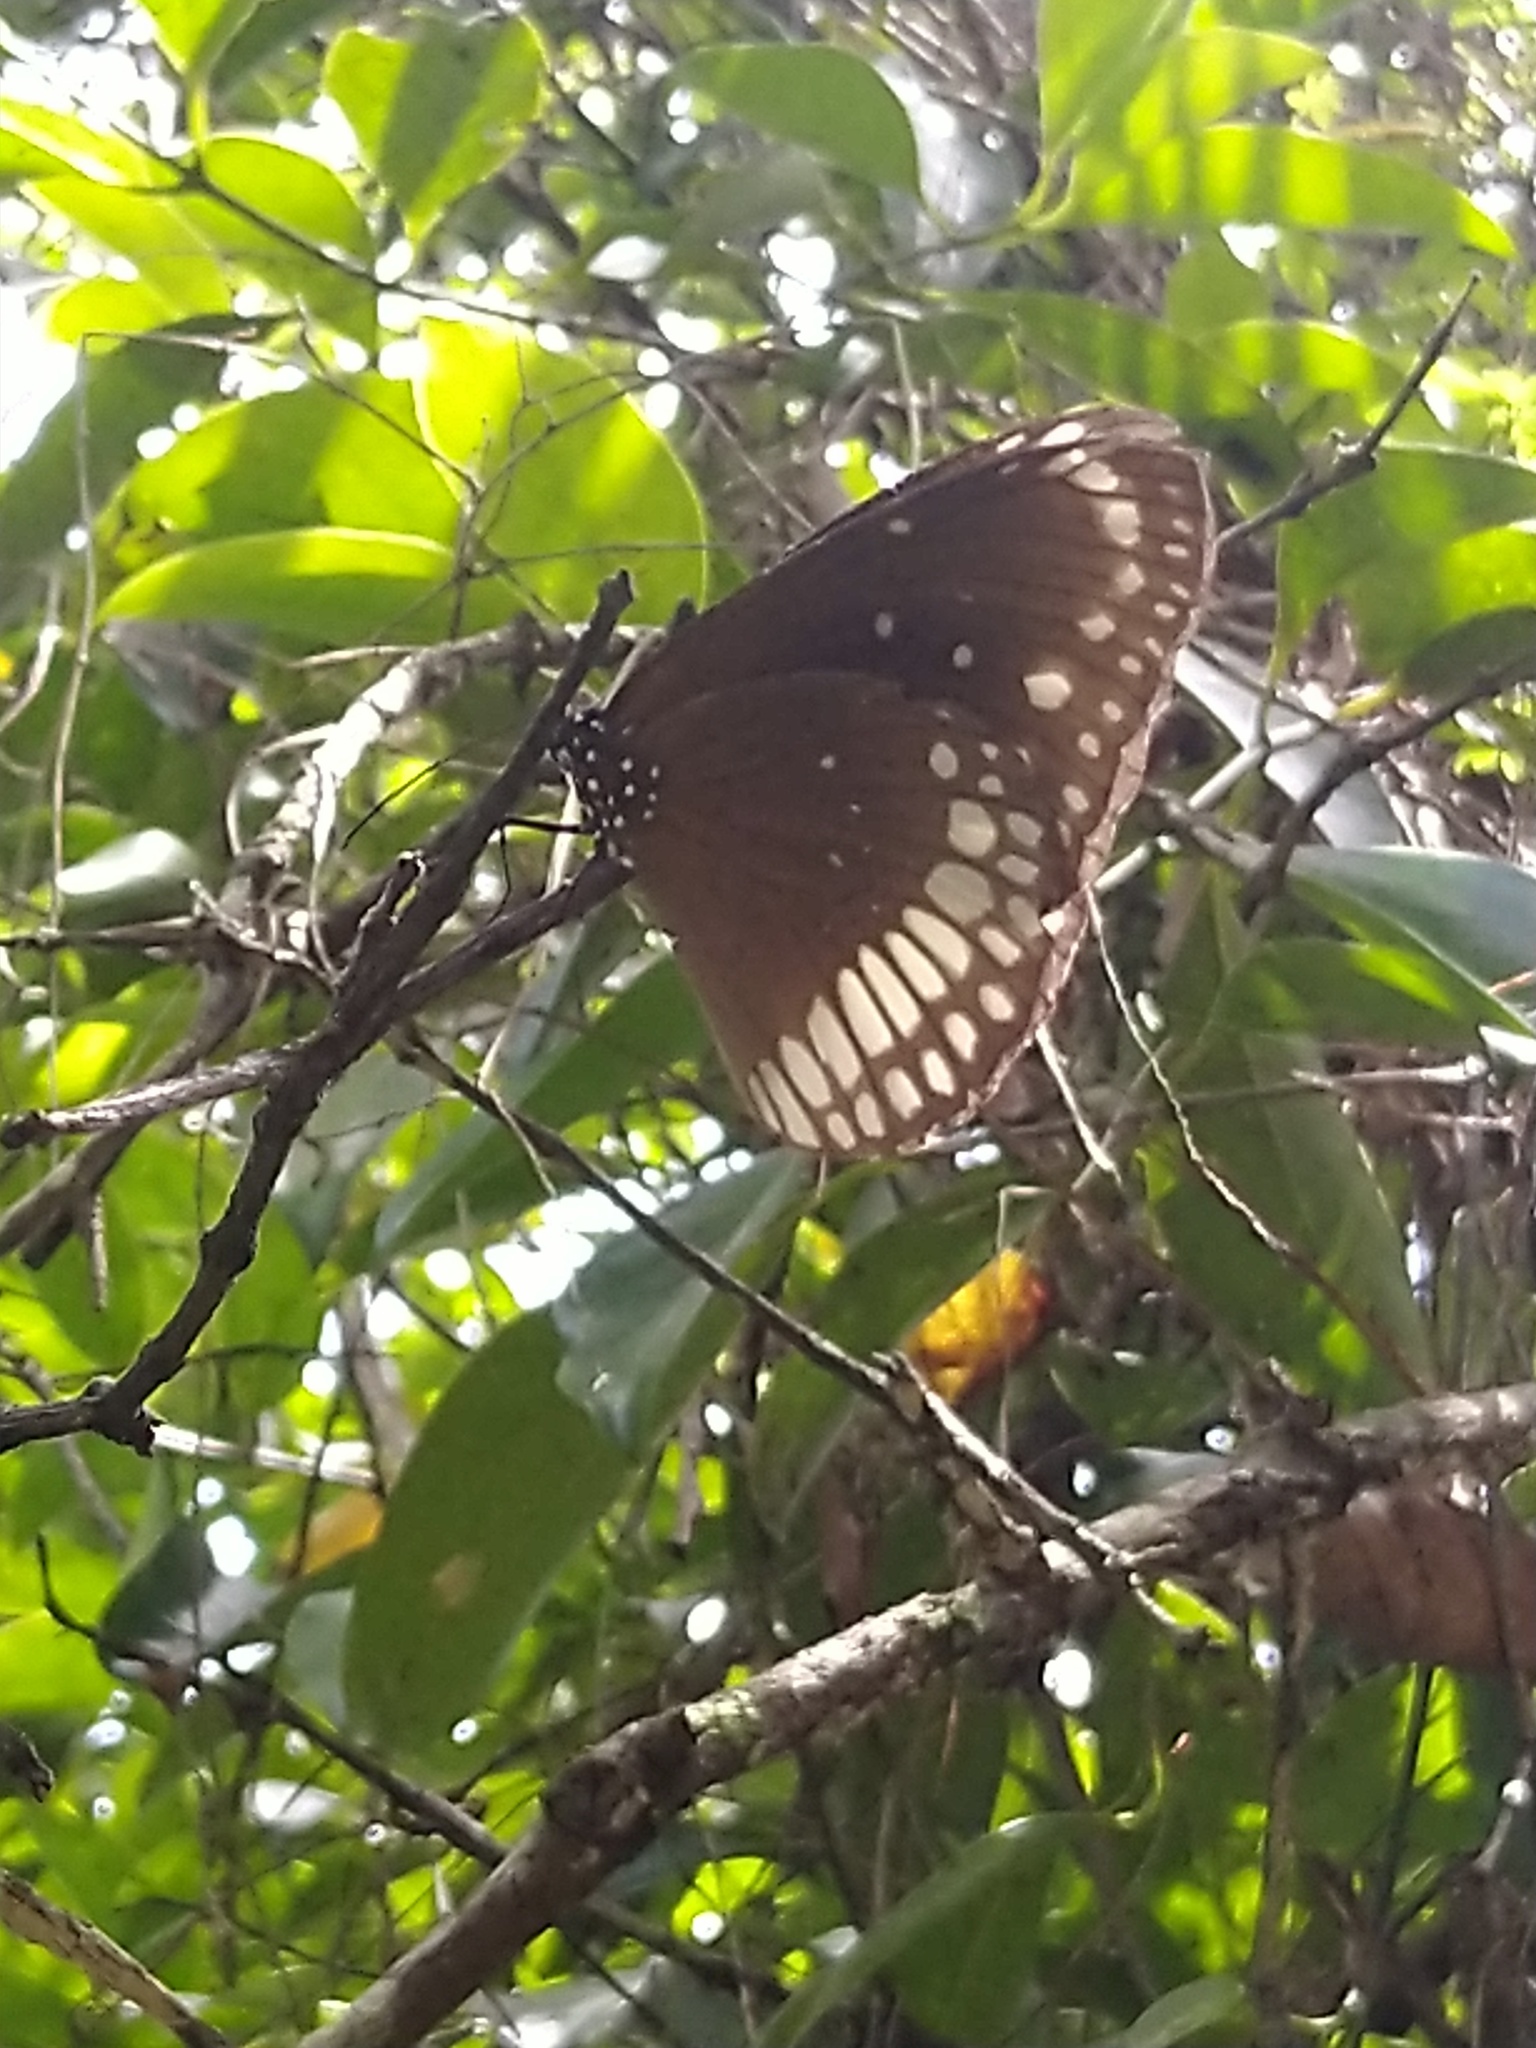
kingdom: Animalia
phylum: Arthropoda
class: Insecta
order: Lepidoptera
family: Nymphalidae
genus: Euploea
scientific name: Euploea core
